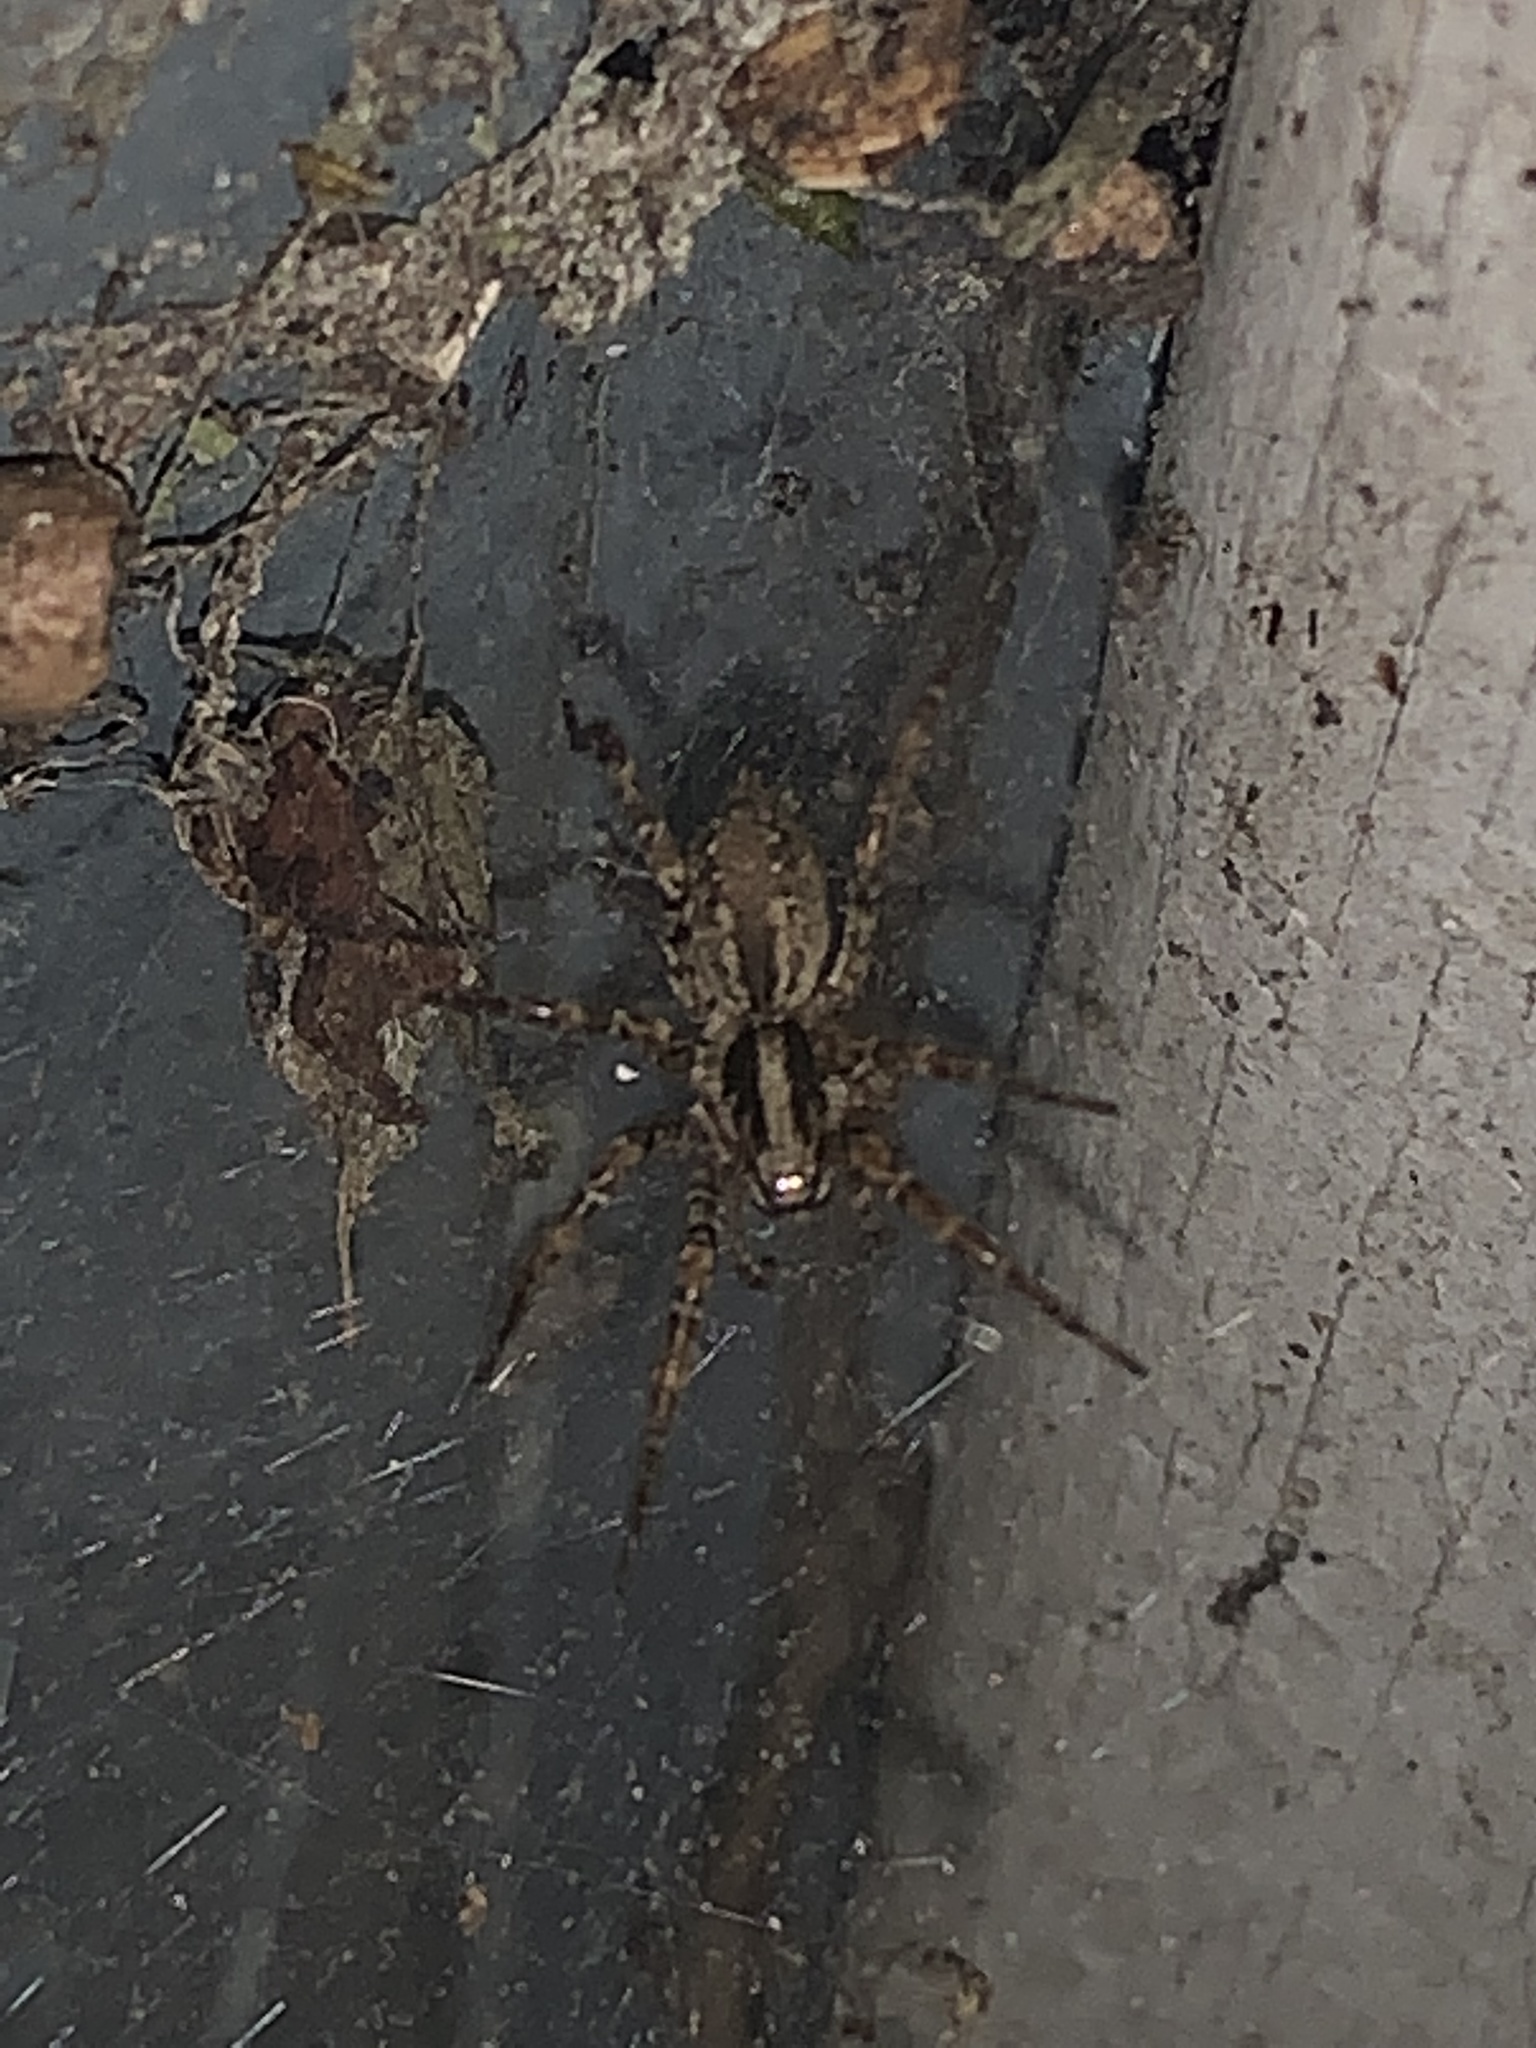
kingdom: Animalia
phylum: Arthropoda
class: Arachnida
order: Araneae
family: Agelenidae
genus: Barronopsis
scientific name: Barronopsis
